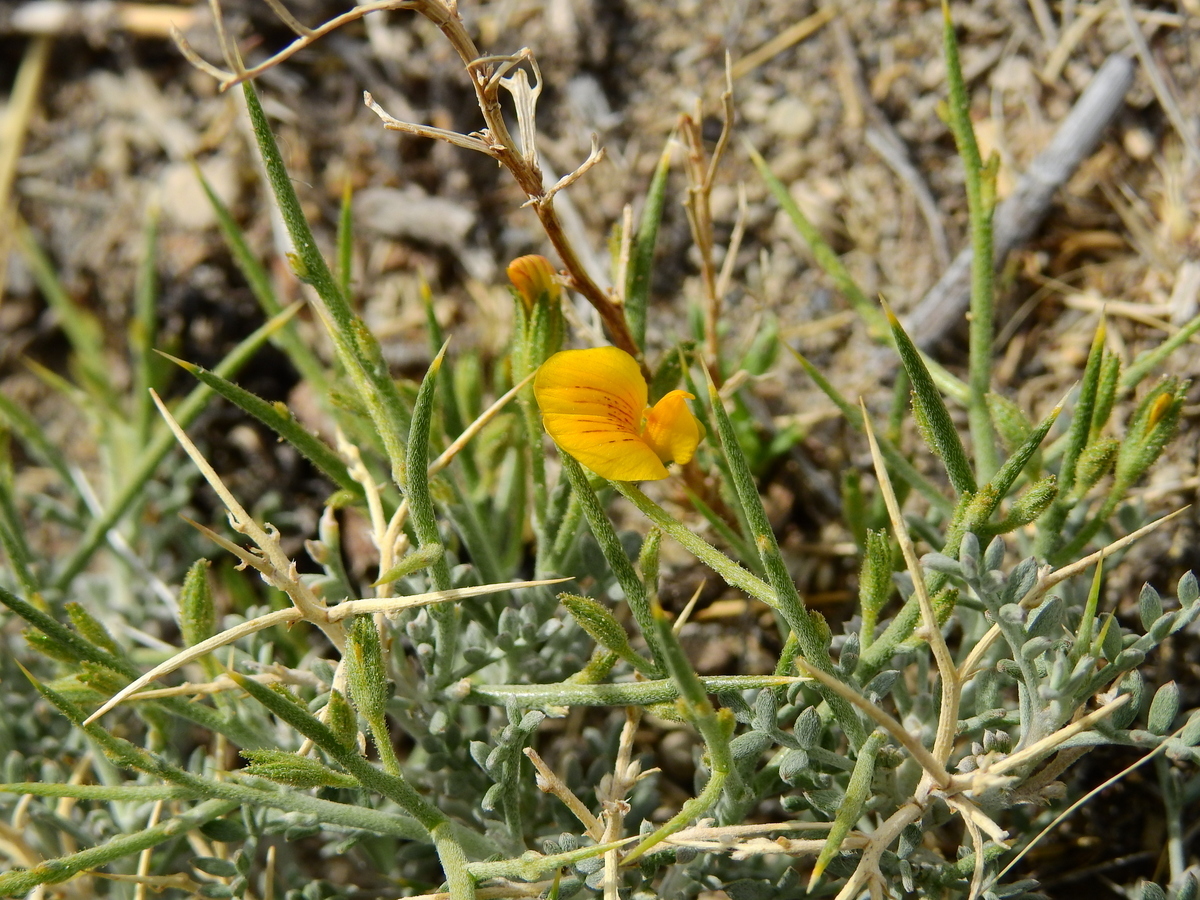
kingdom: Plantae
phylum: Tracheophyta
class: Magnoliopsida
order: Fabales
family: Fabaceae
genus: Adesmia
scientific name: Adesmia candida
